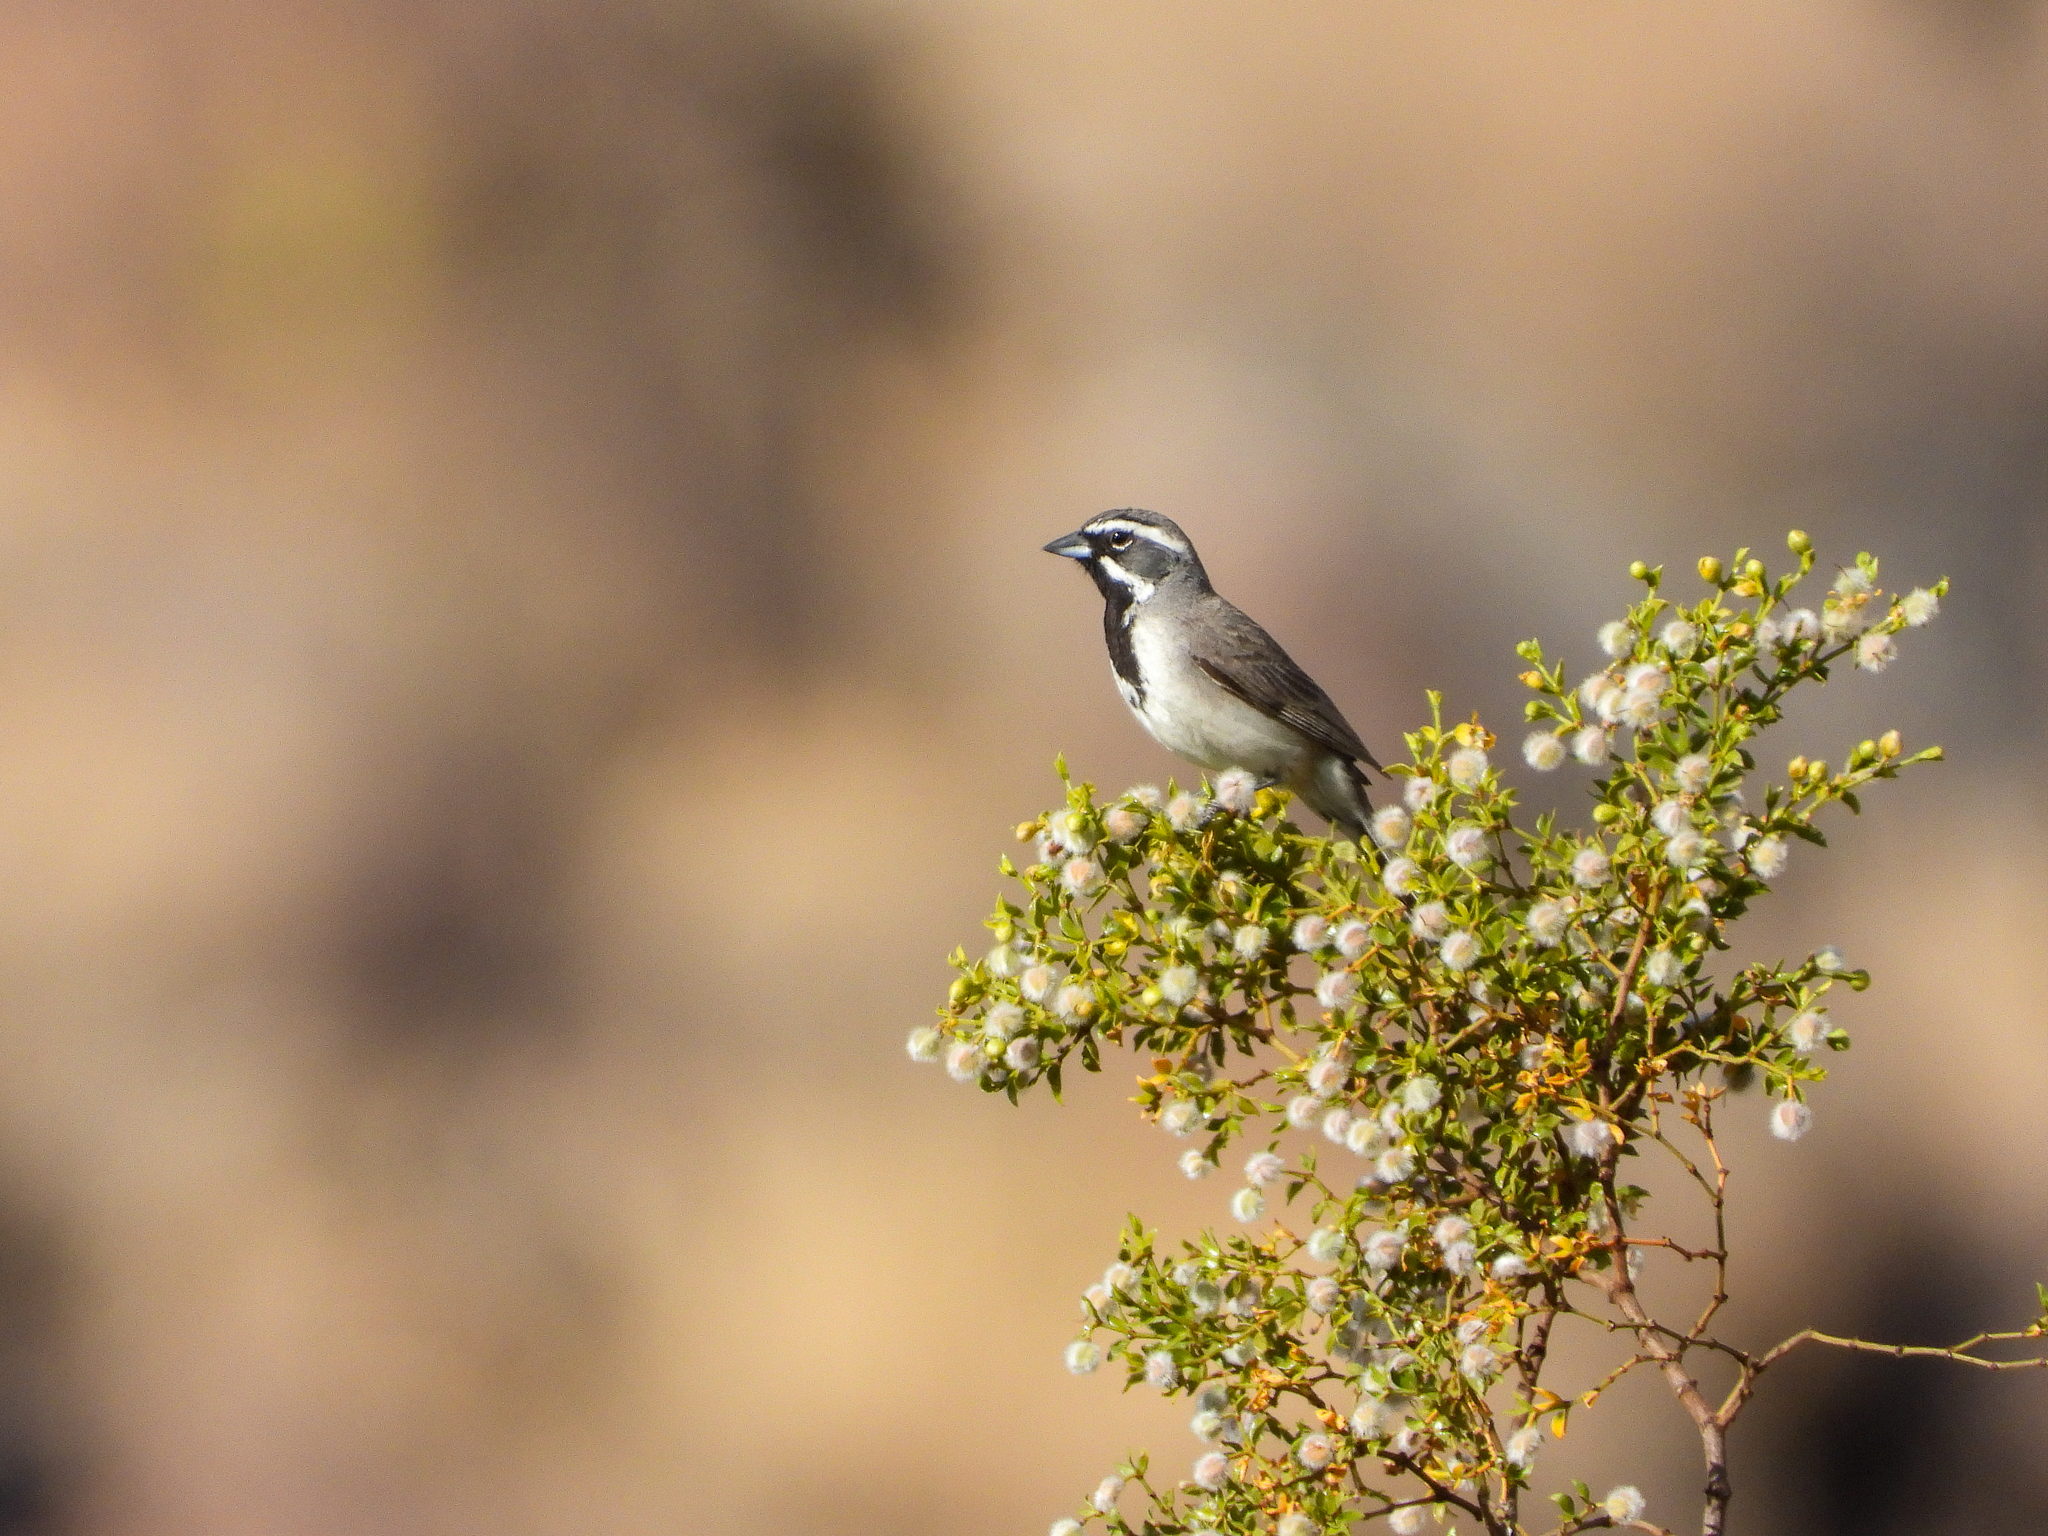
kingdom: Animalia
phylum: Chordata
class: Aves
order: Passeriformes
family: Passerellidae
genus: Amphispiza
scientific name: Amphispiza bilineata
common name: Black-throated sparrow
